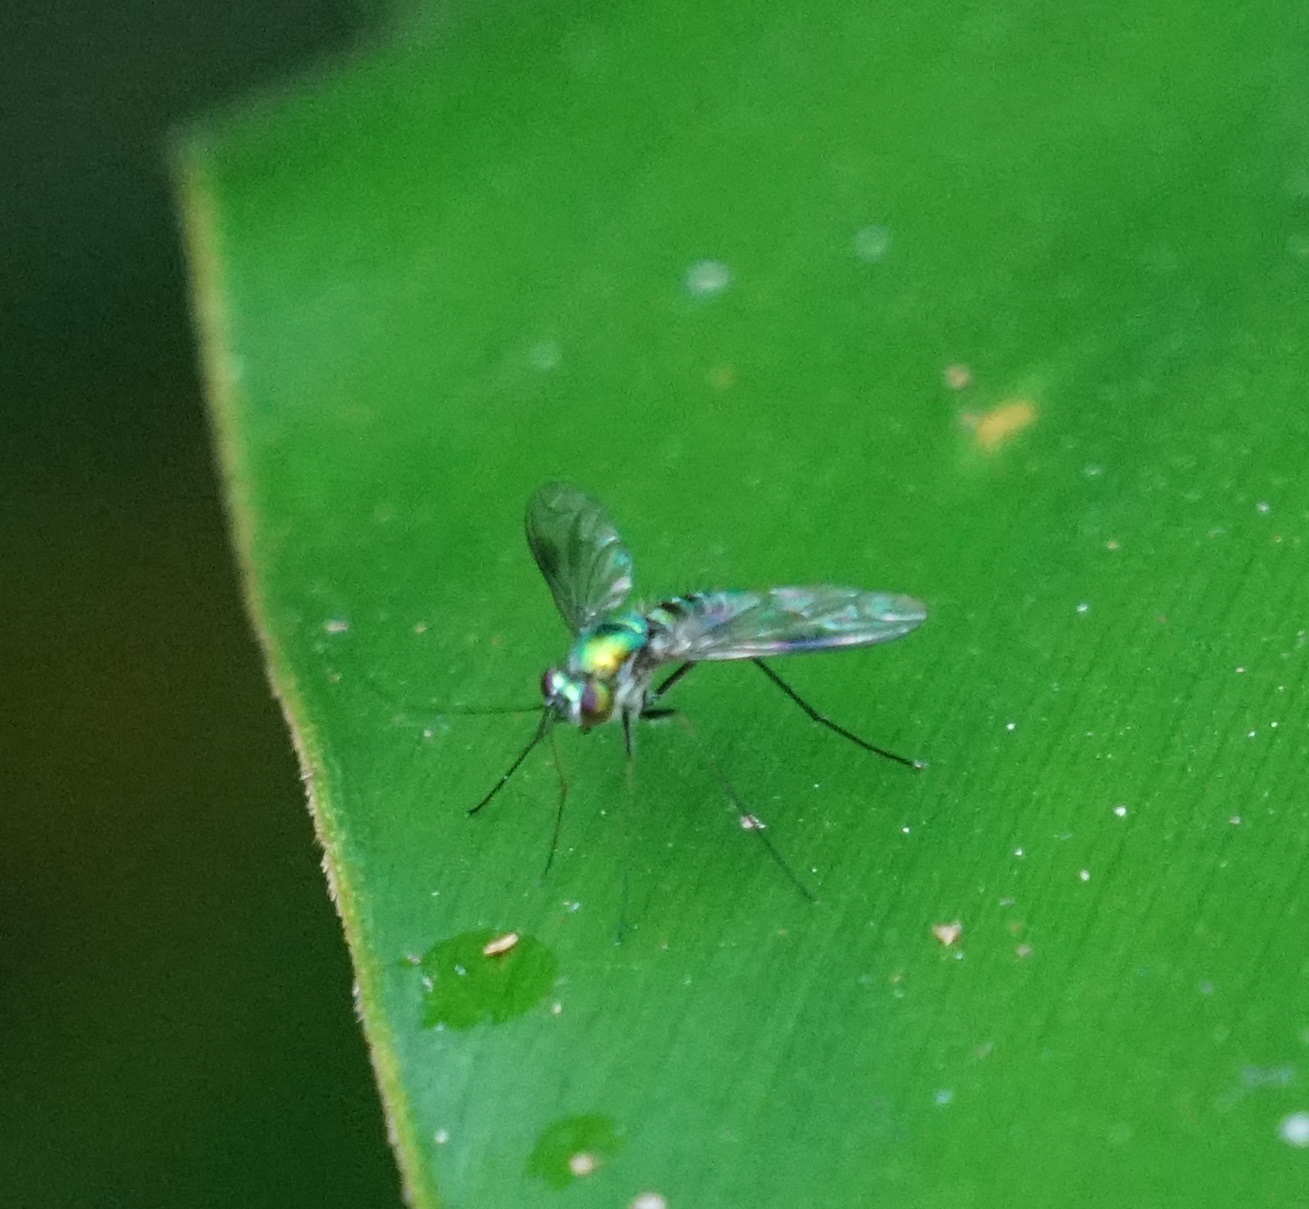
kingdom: Animalia
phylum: Arthropoda
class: Insecta
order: Diptera
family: Dolichopodidae
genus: Chrysosoma
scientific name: Chrysosoma crinicorne
